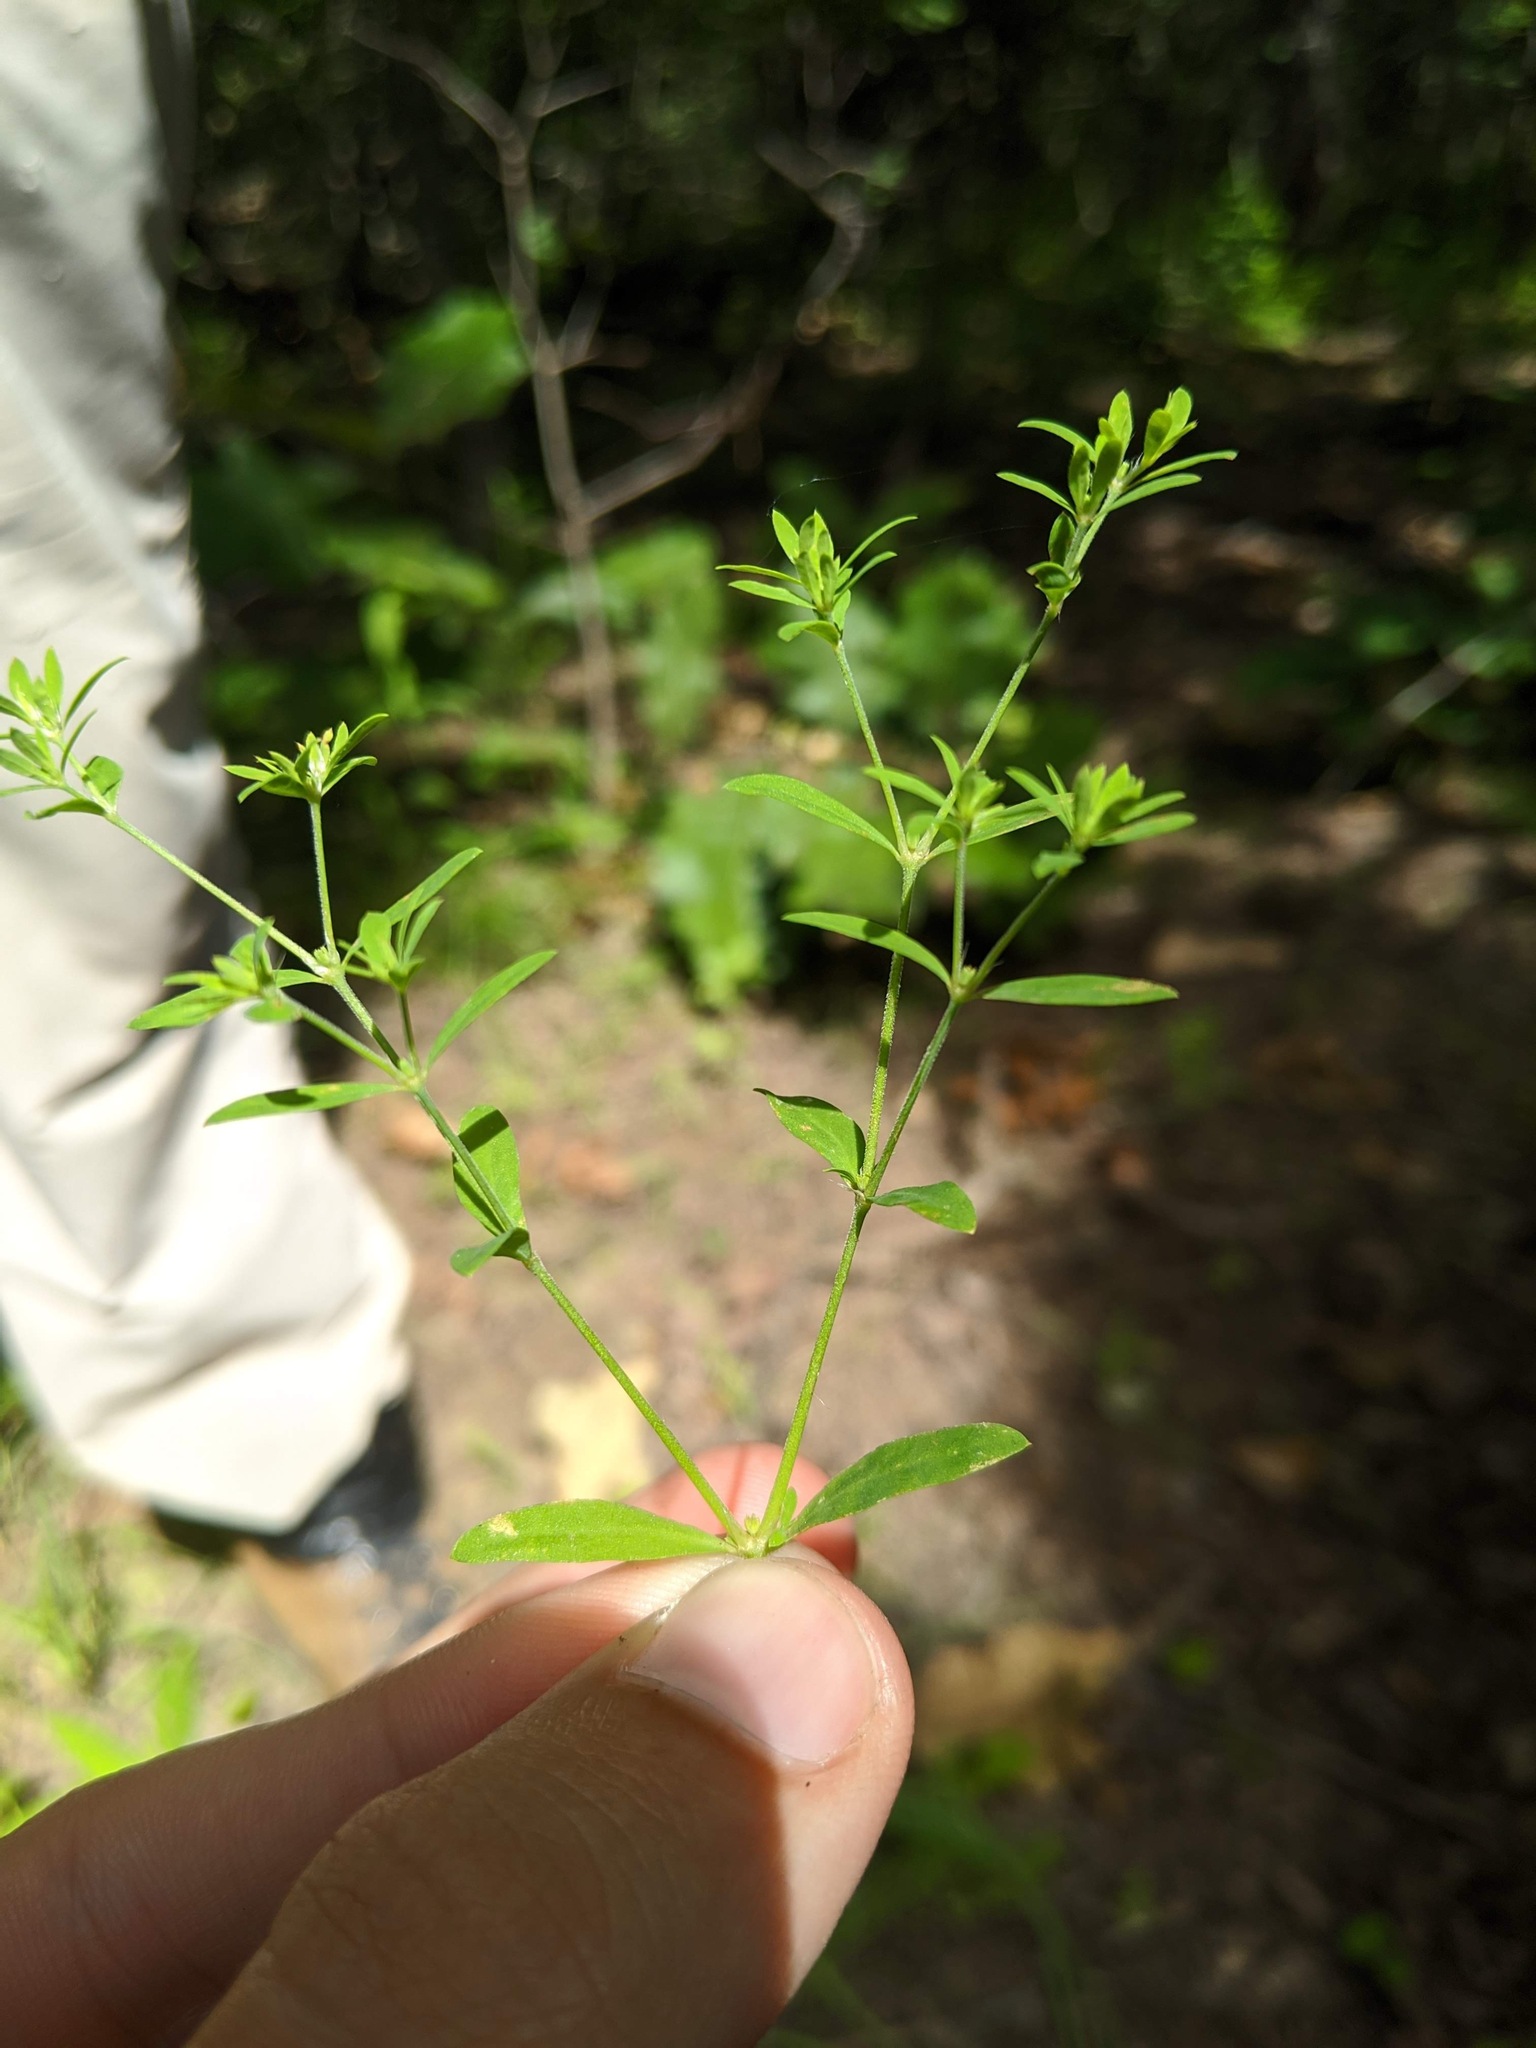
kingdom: Plantae
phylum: Tracheophyta
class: Magnoliopsida
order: Caryophyllales
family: Caryophyllaceae
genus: Paronychia
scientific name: Paronychia canadensis
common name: Canada forked nailwort
